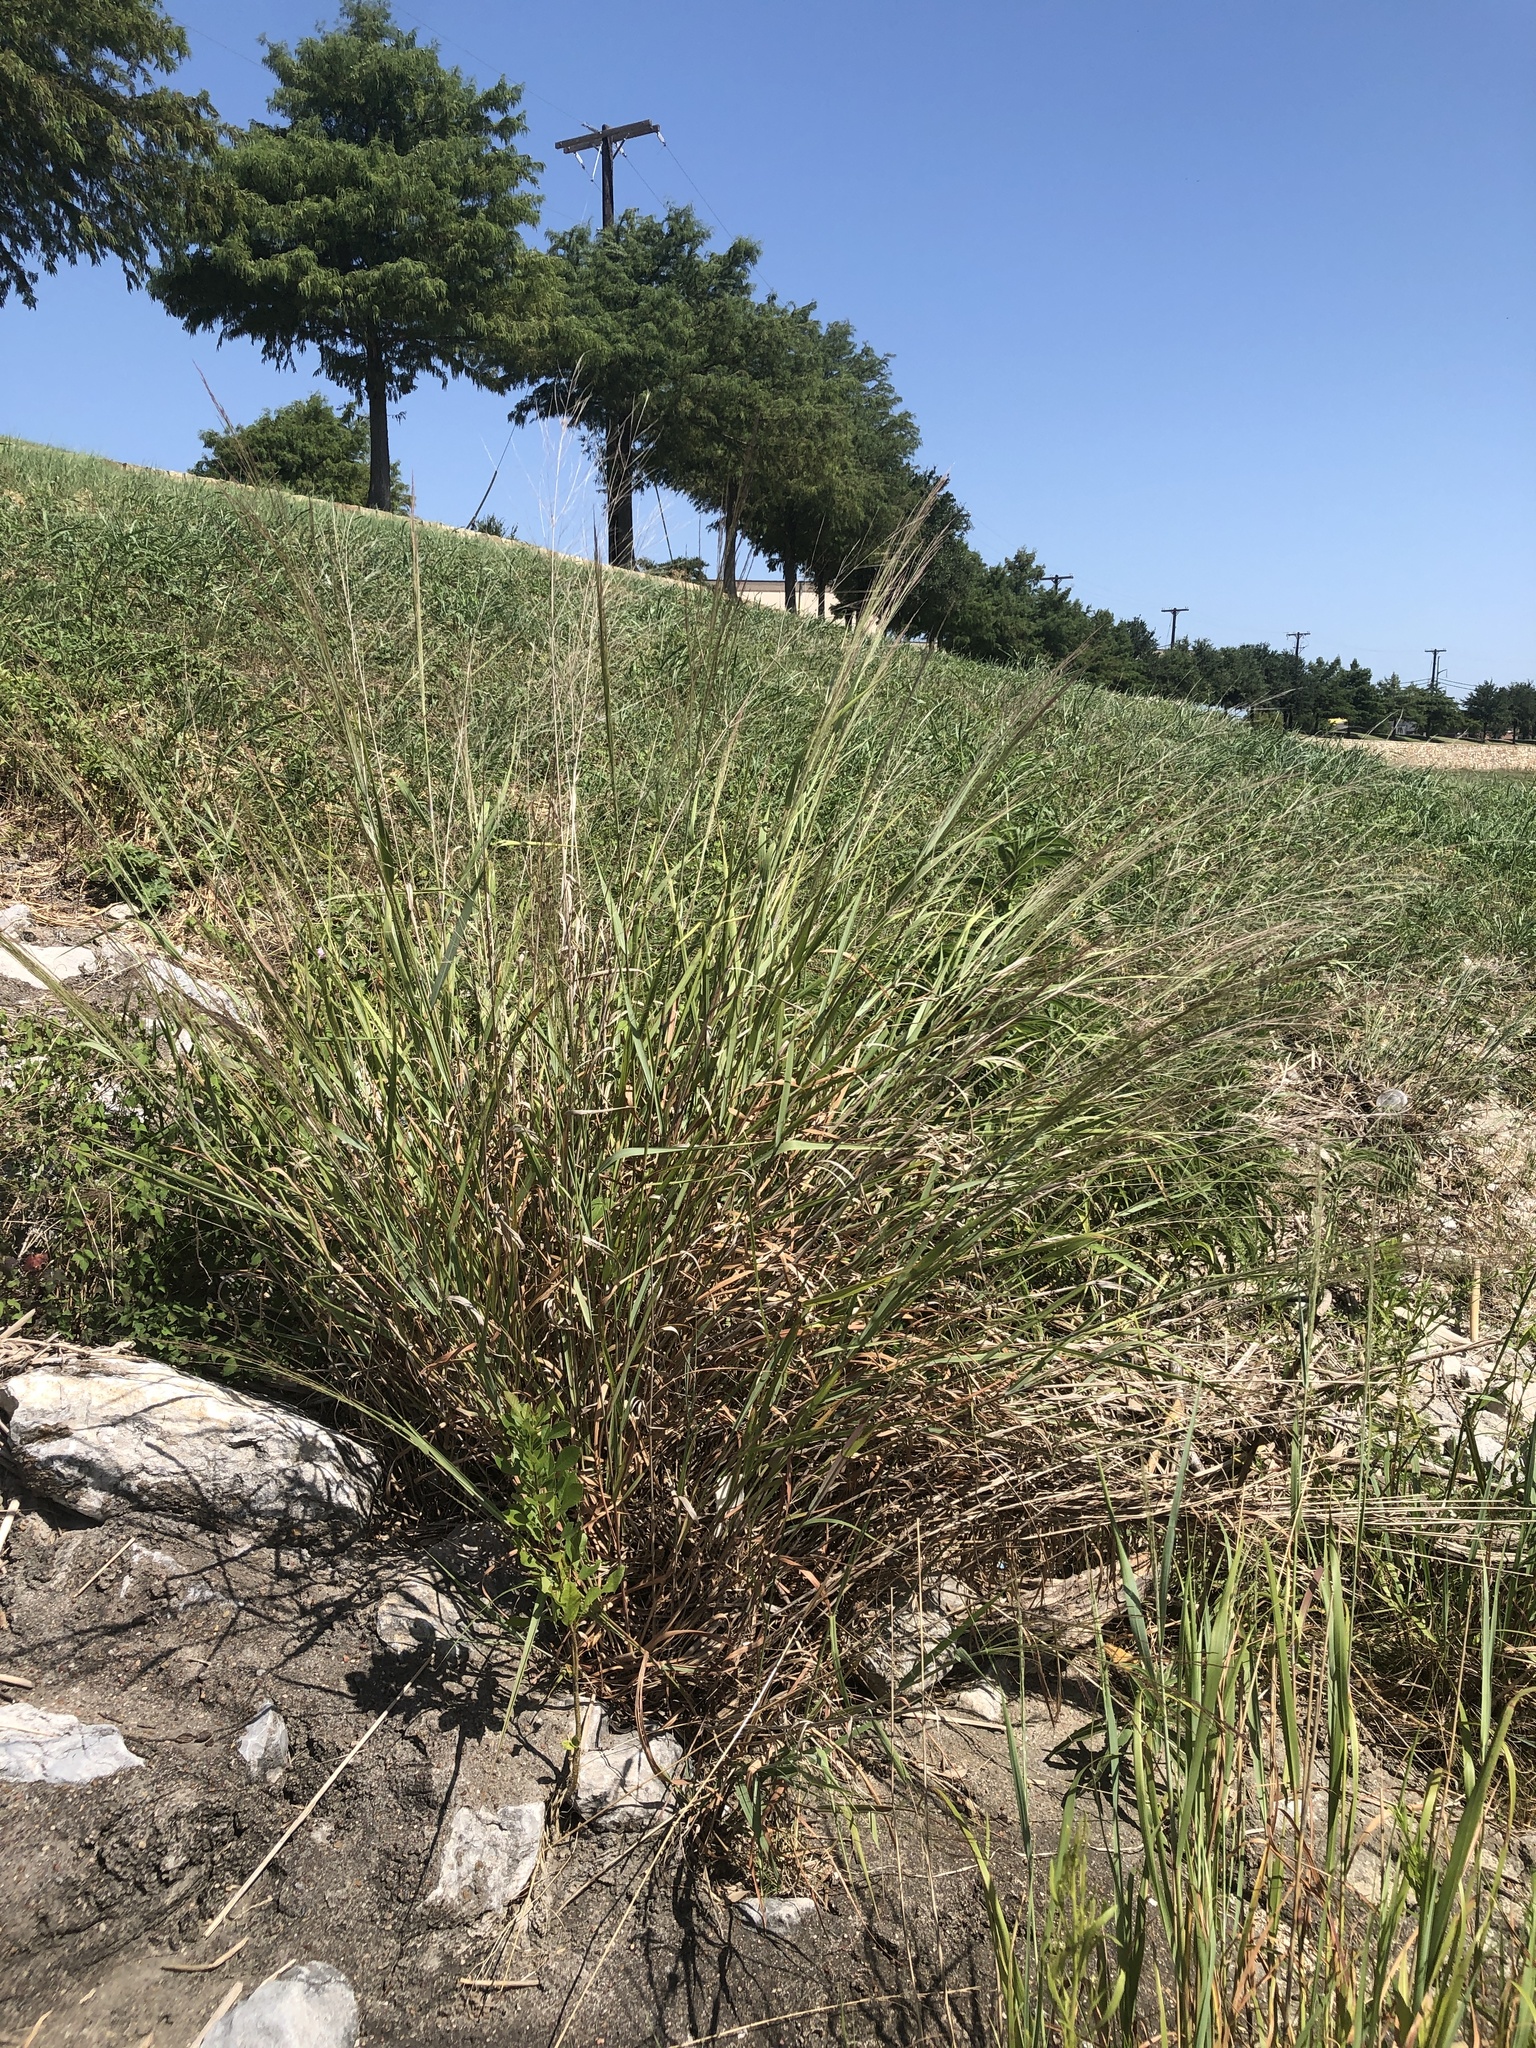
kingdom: Plantae
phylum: Tracheophyta
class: Liliopsida
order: Poales
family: Poaceae
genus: Panicum
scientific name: Panicum virgatum
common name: Switchgrass
